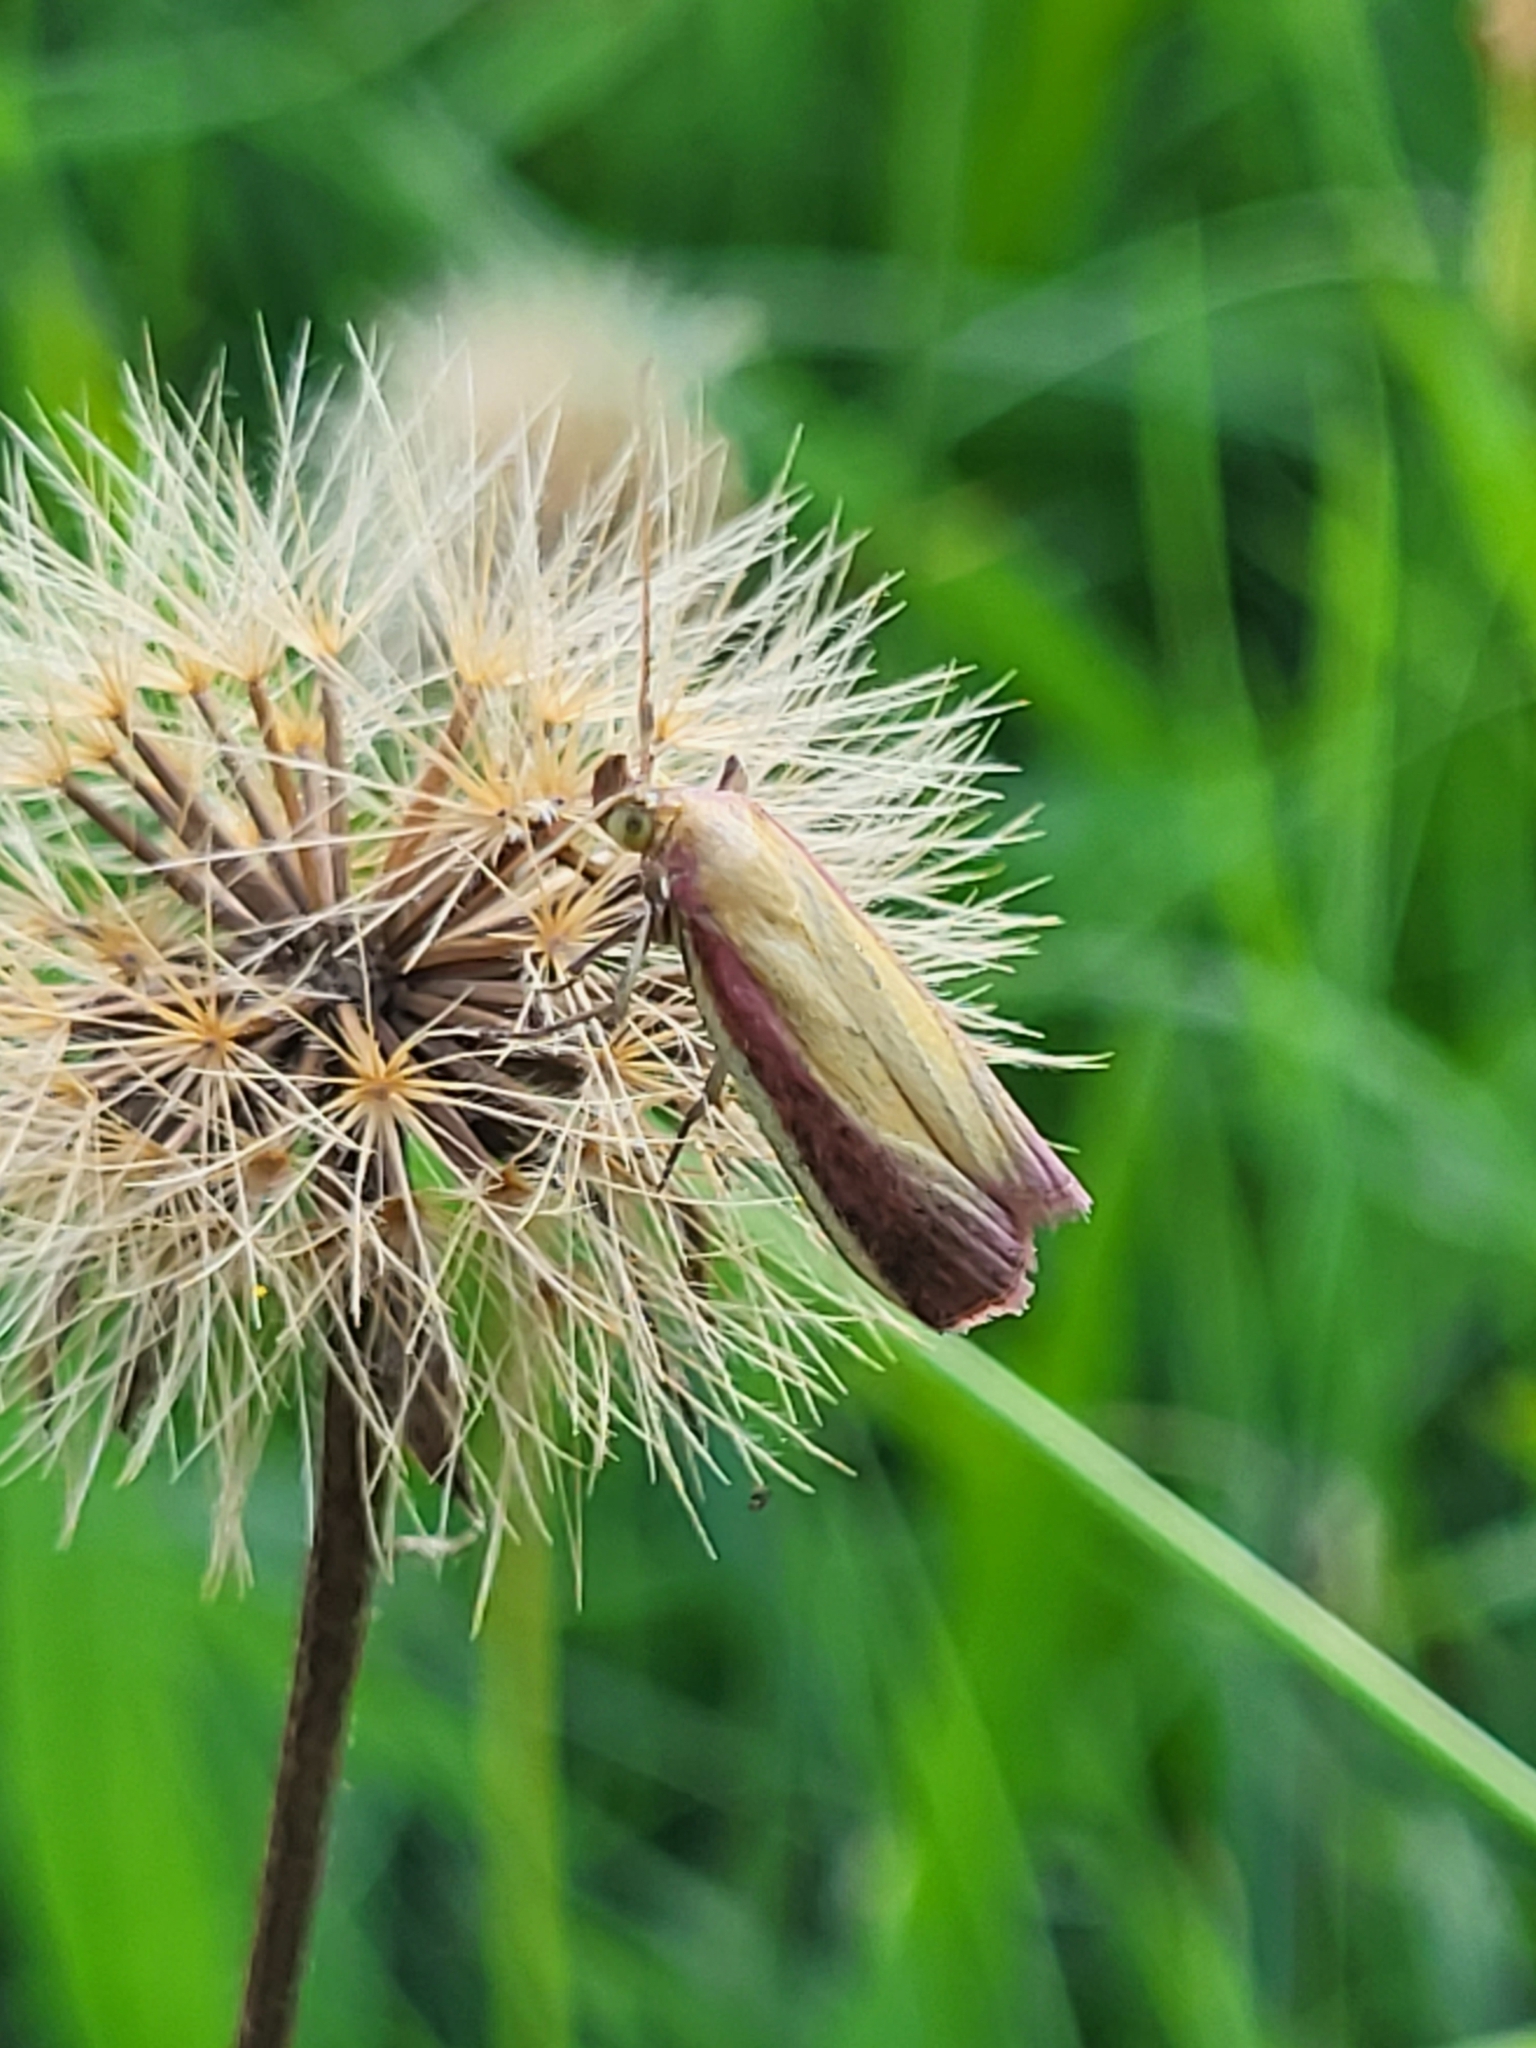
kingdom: Animalia
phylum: Arthropoda
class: Insecta
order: Lepidoptera
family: Pyralidae
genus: Oncocera
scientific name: Oncocera semirubella
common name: Rosy-striped knot-horn
